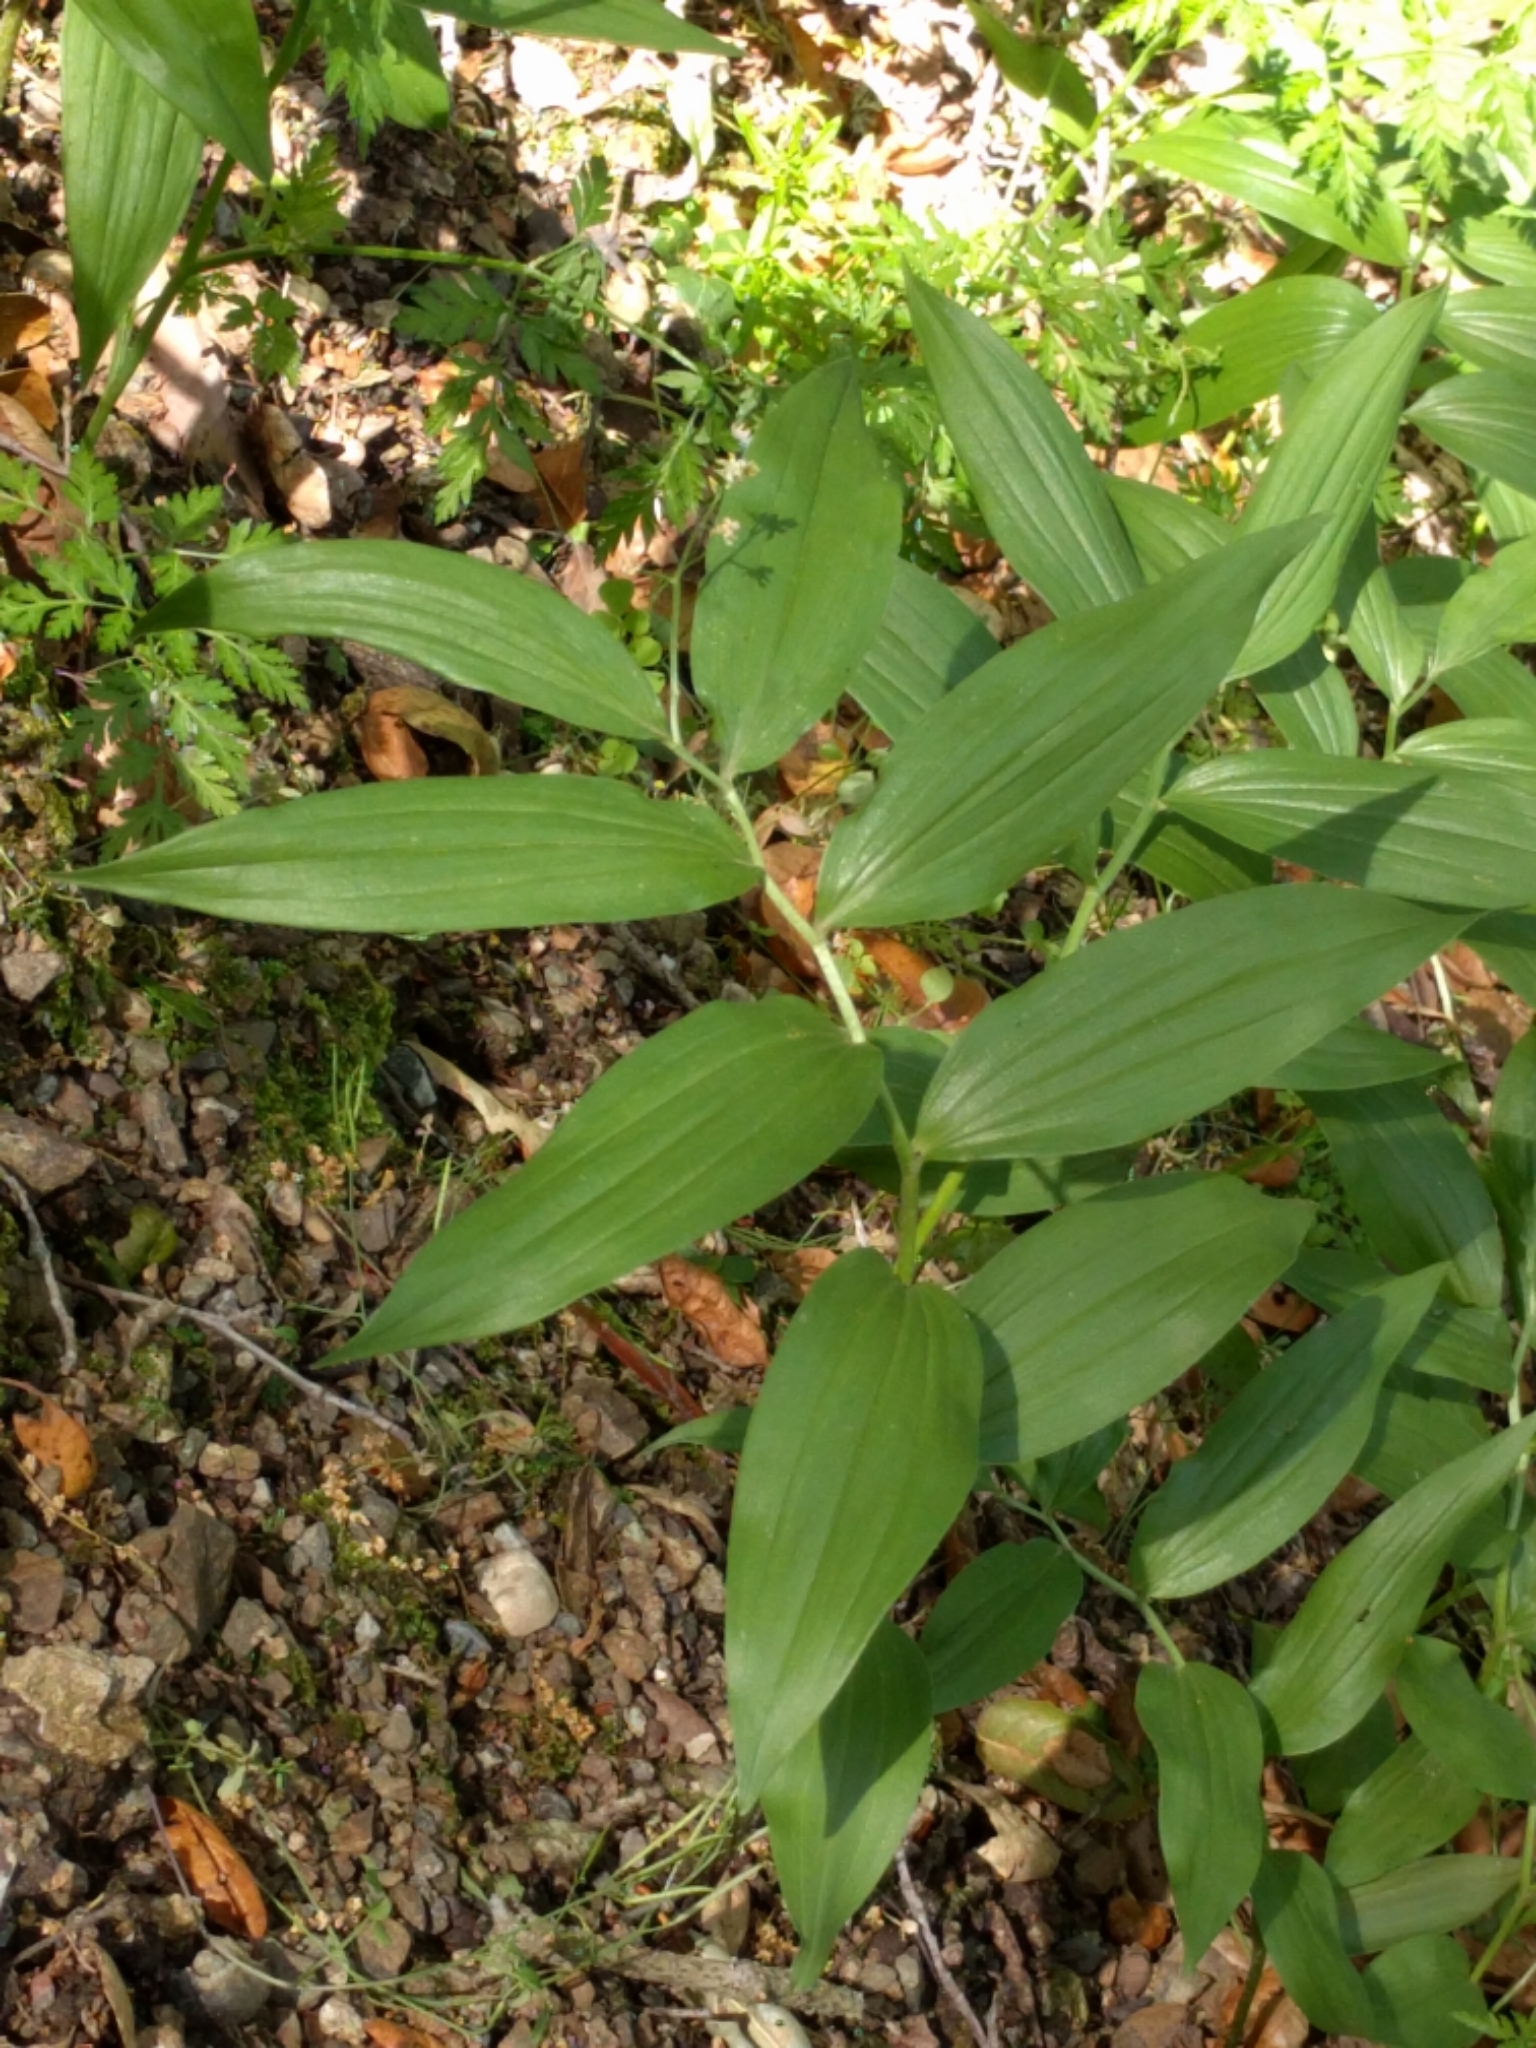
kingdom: Plantae
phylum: Tracheophyta
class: Liliopsida
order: Asparagales
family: Asparagaceae
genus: Maianthemum
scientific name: Maianthemum stellatum
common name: Little false solomon's seal
